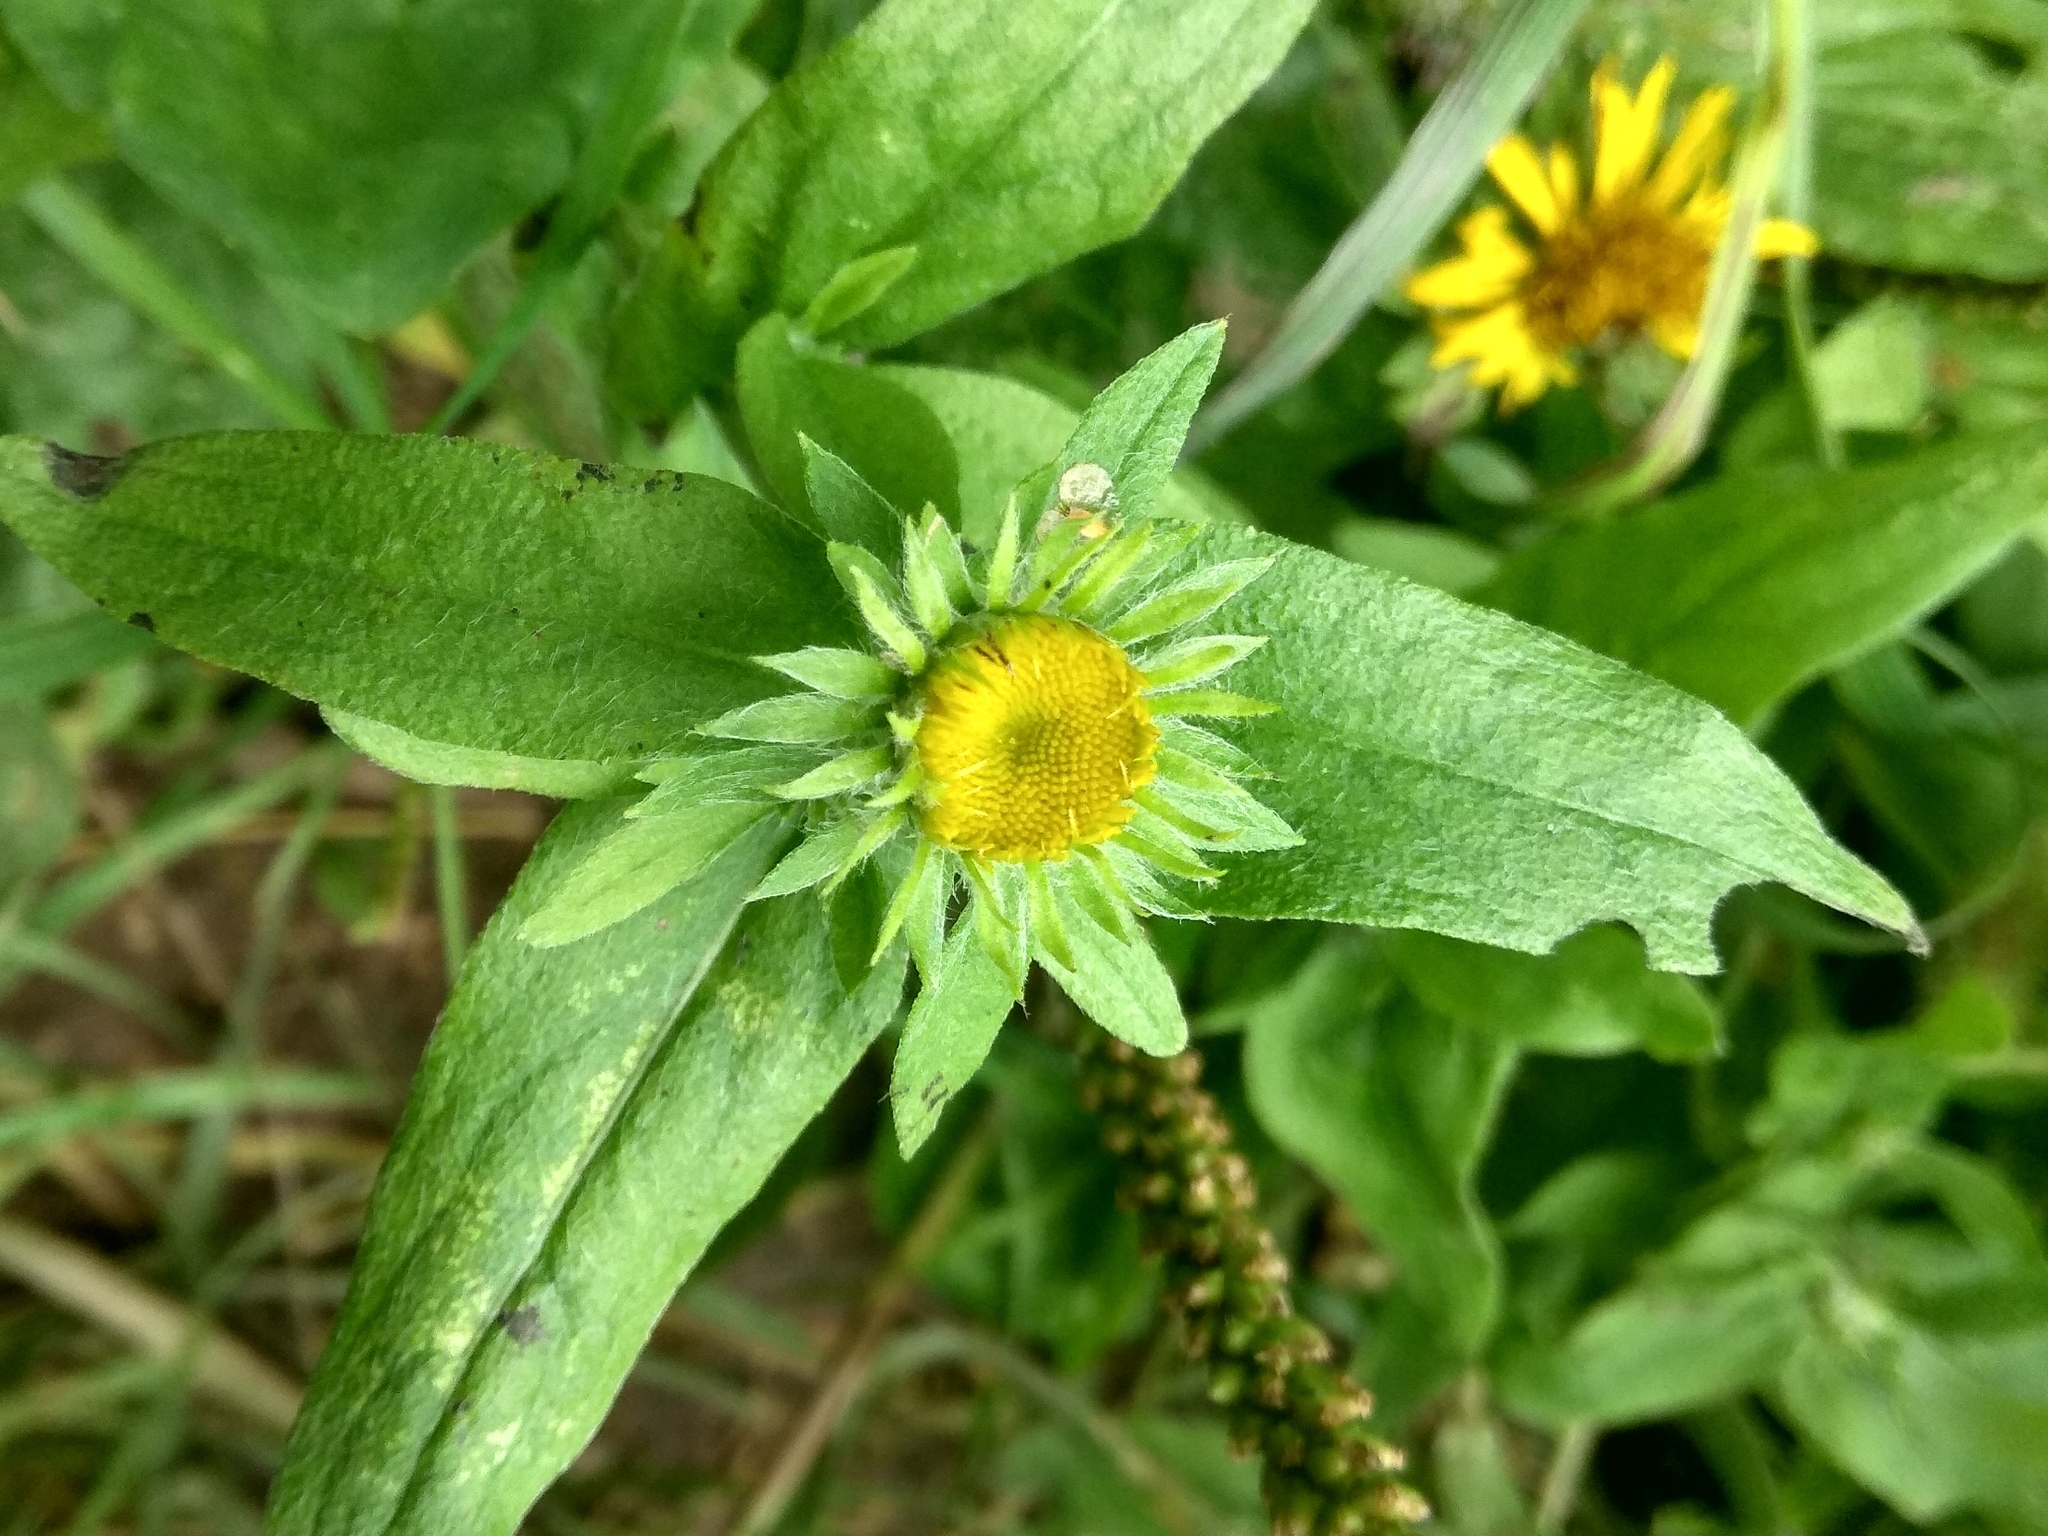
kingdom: Plantae
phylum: Tracheophyta
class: Magnoliopsida
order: Asterales
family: Asteraceae
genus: Pentanema
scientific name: Pentanema britannicum
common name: British elecampane
